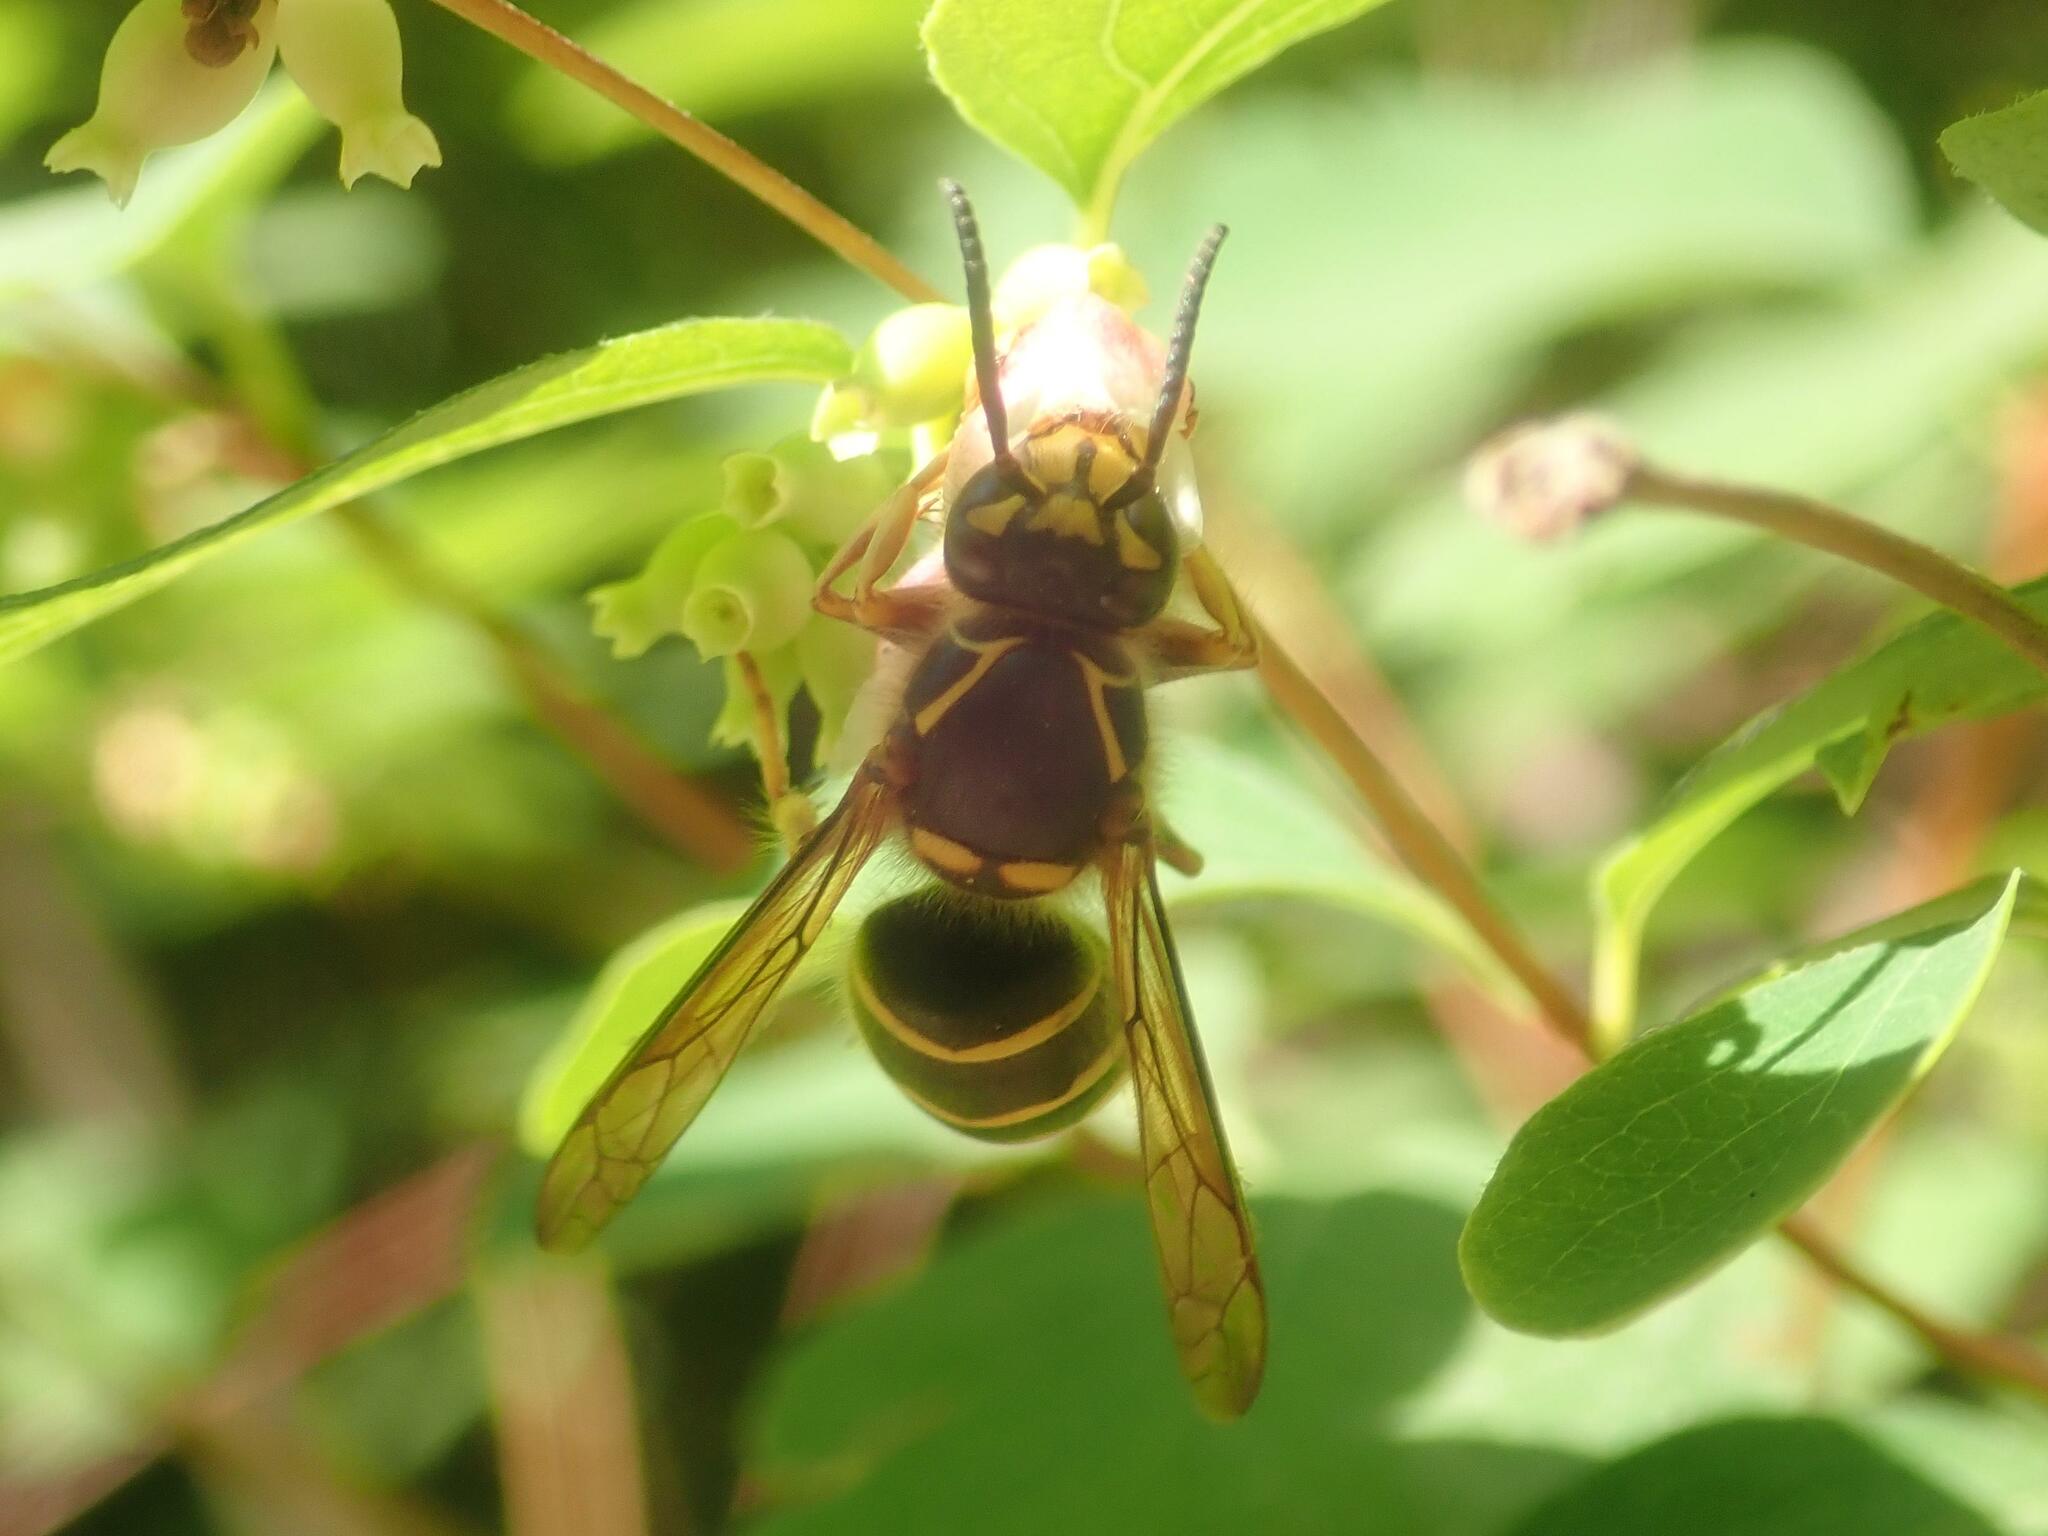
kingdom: Animalia
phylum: Arthropoda
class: Insecta
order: Hymenoptera
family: Vespidae
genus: Dolichovespula
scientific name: Dolichovespula media
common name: Median wasp
